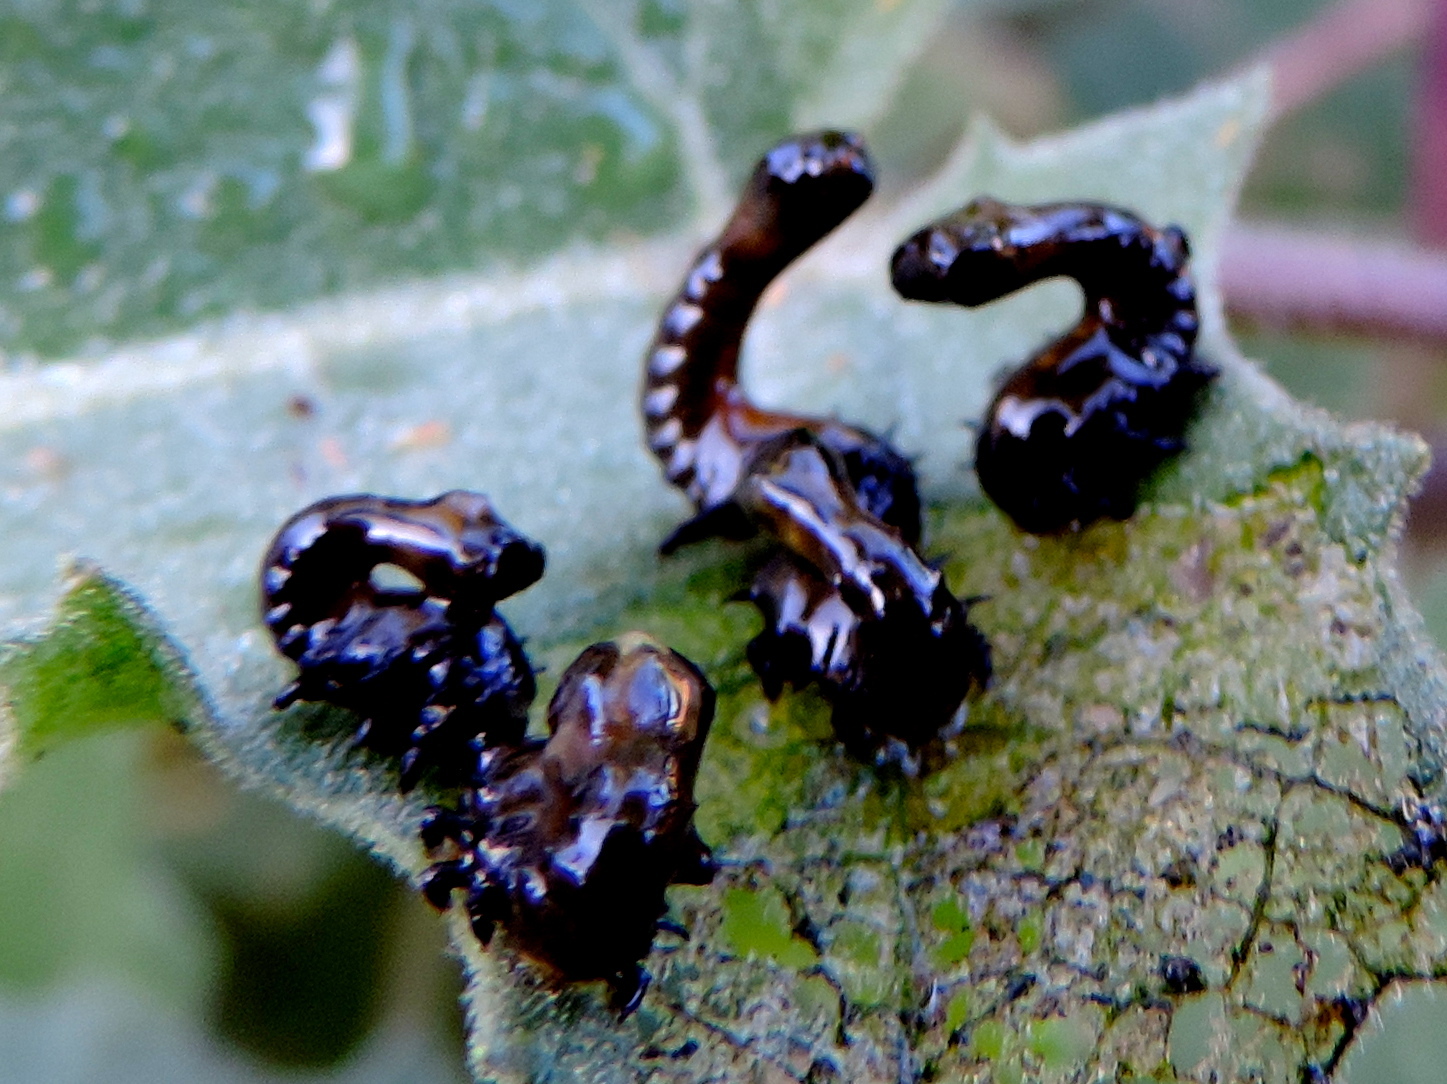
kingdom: Animalia
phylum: Arthropoda
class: Insecta
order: Coleoptera
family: Chrysomelidae
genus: Physonota
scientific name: Physonota arizonae
